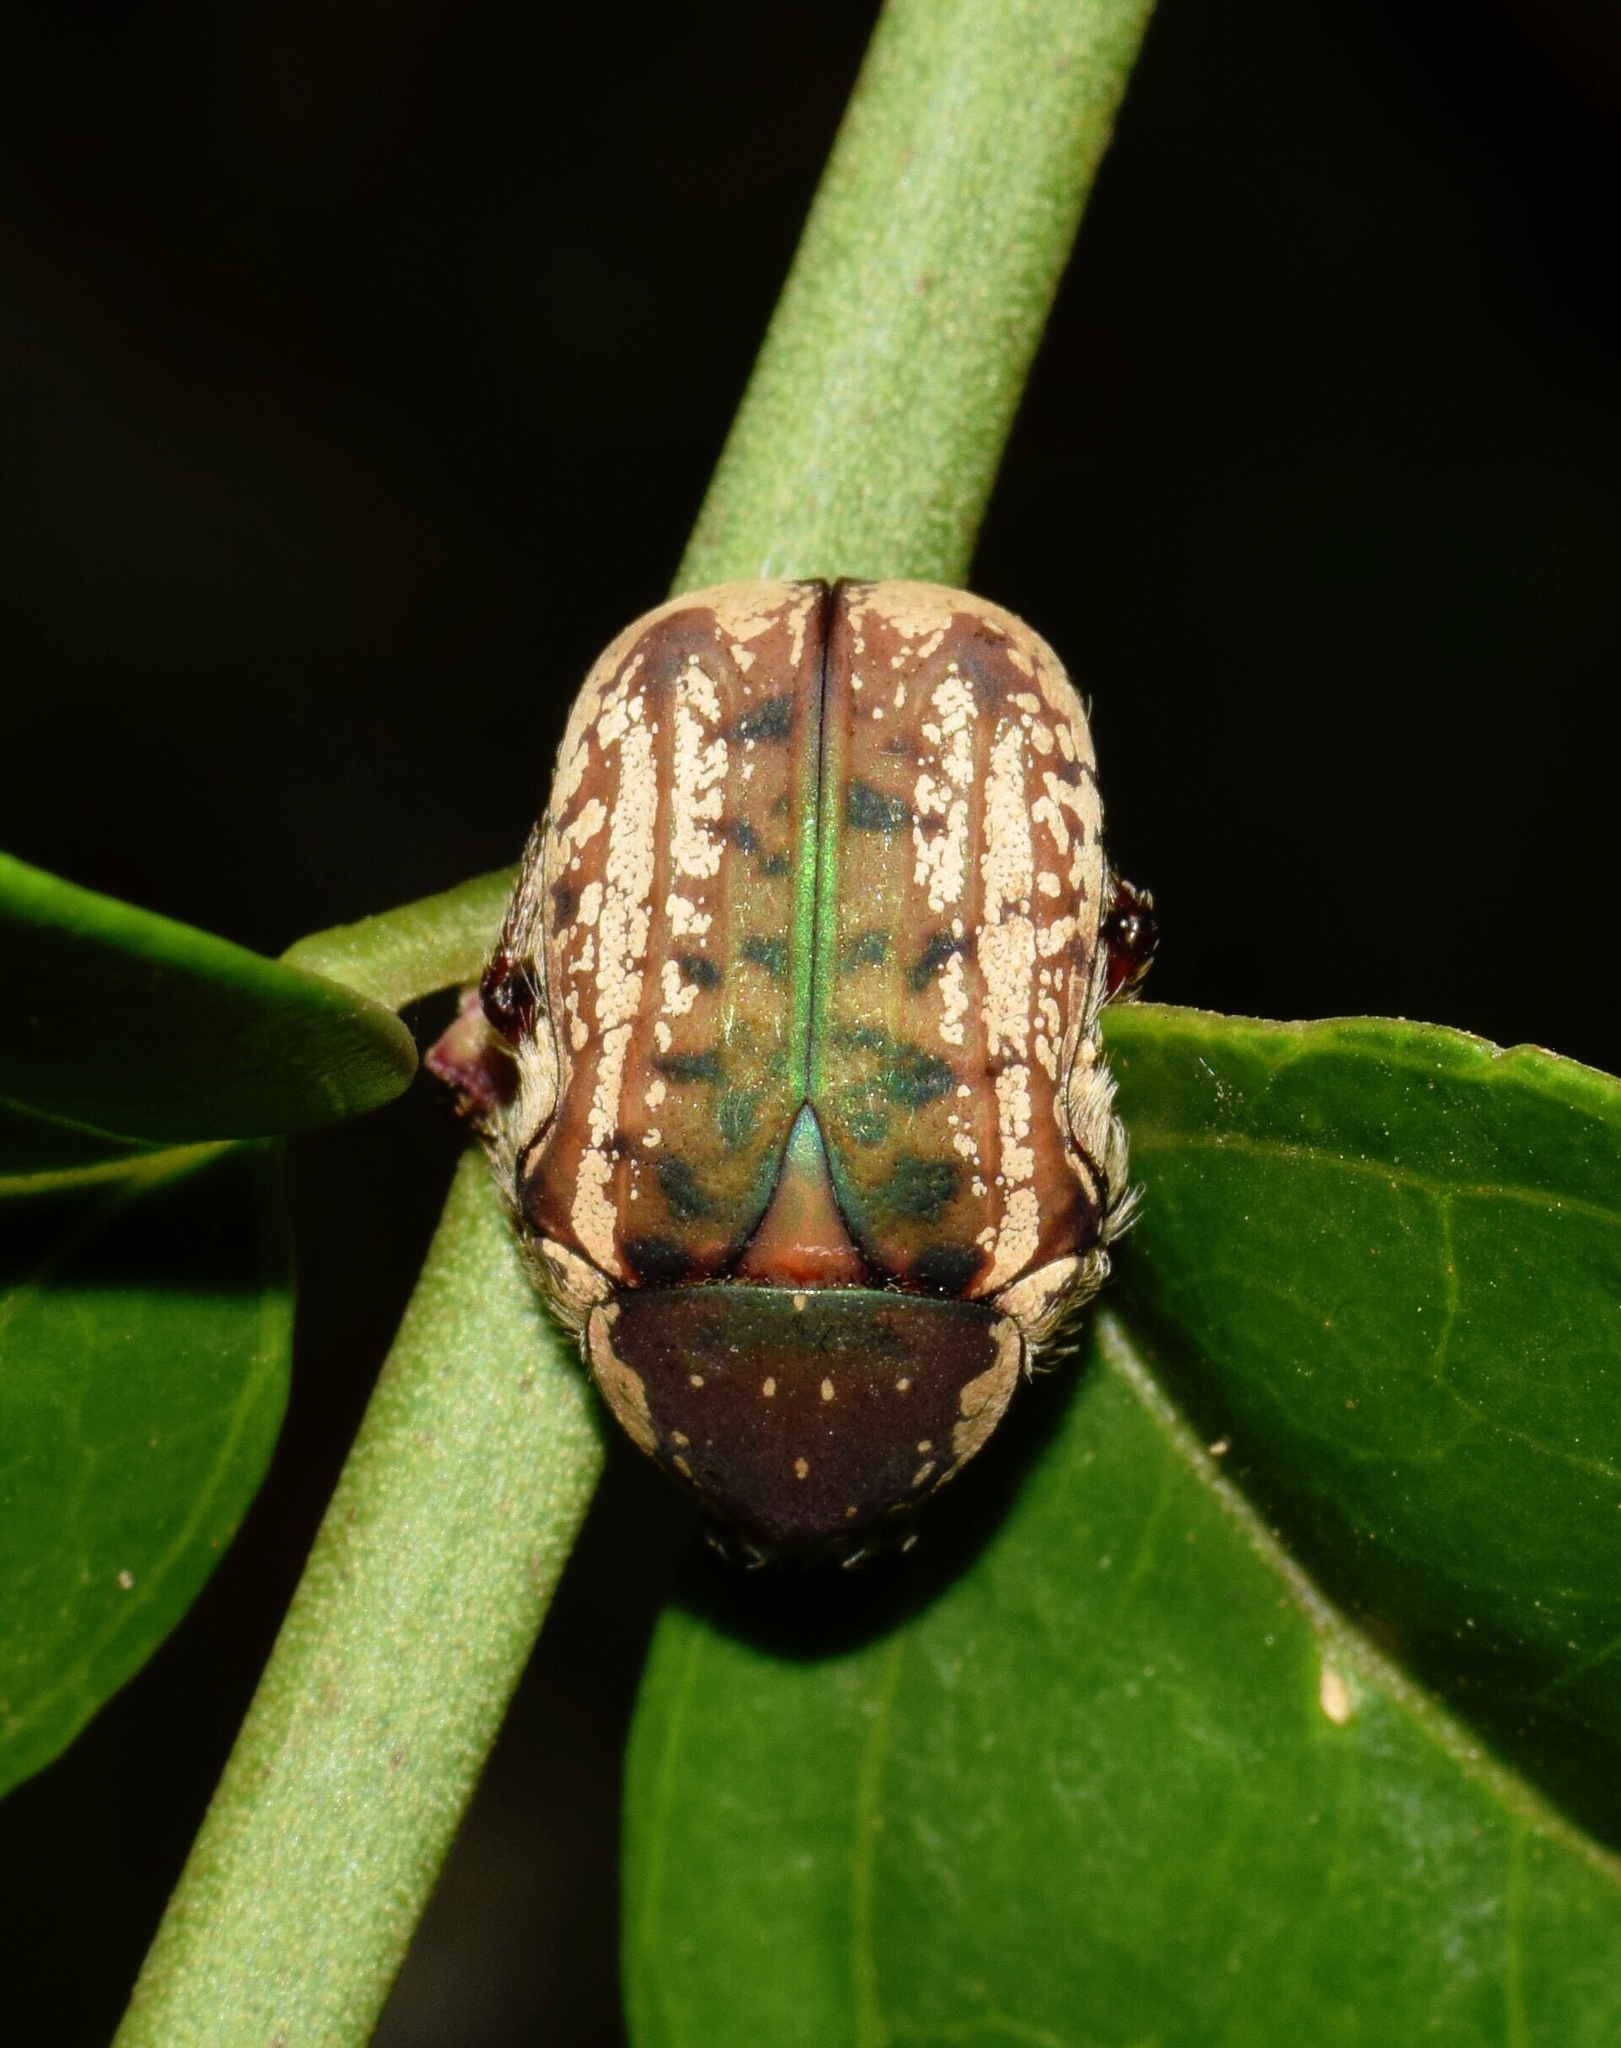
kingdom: Animalia
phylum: Arthropoda
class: Insecta
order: Coleoptera
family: Scarabaeidae
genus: Elaphinis
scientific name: Elaphinis irrorata
